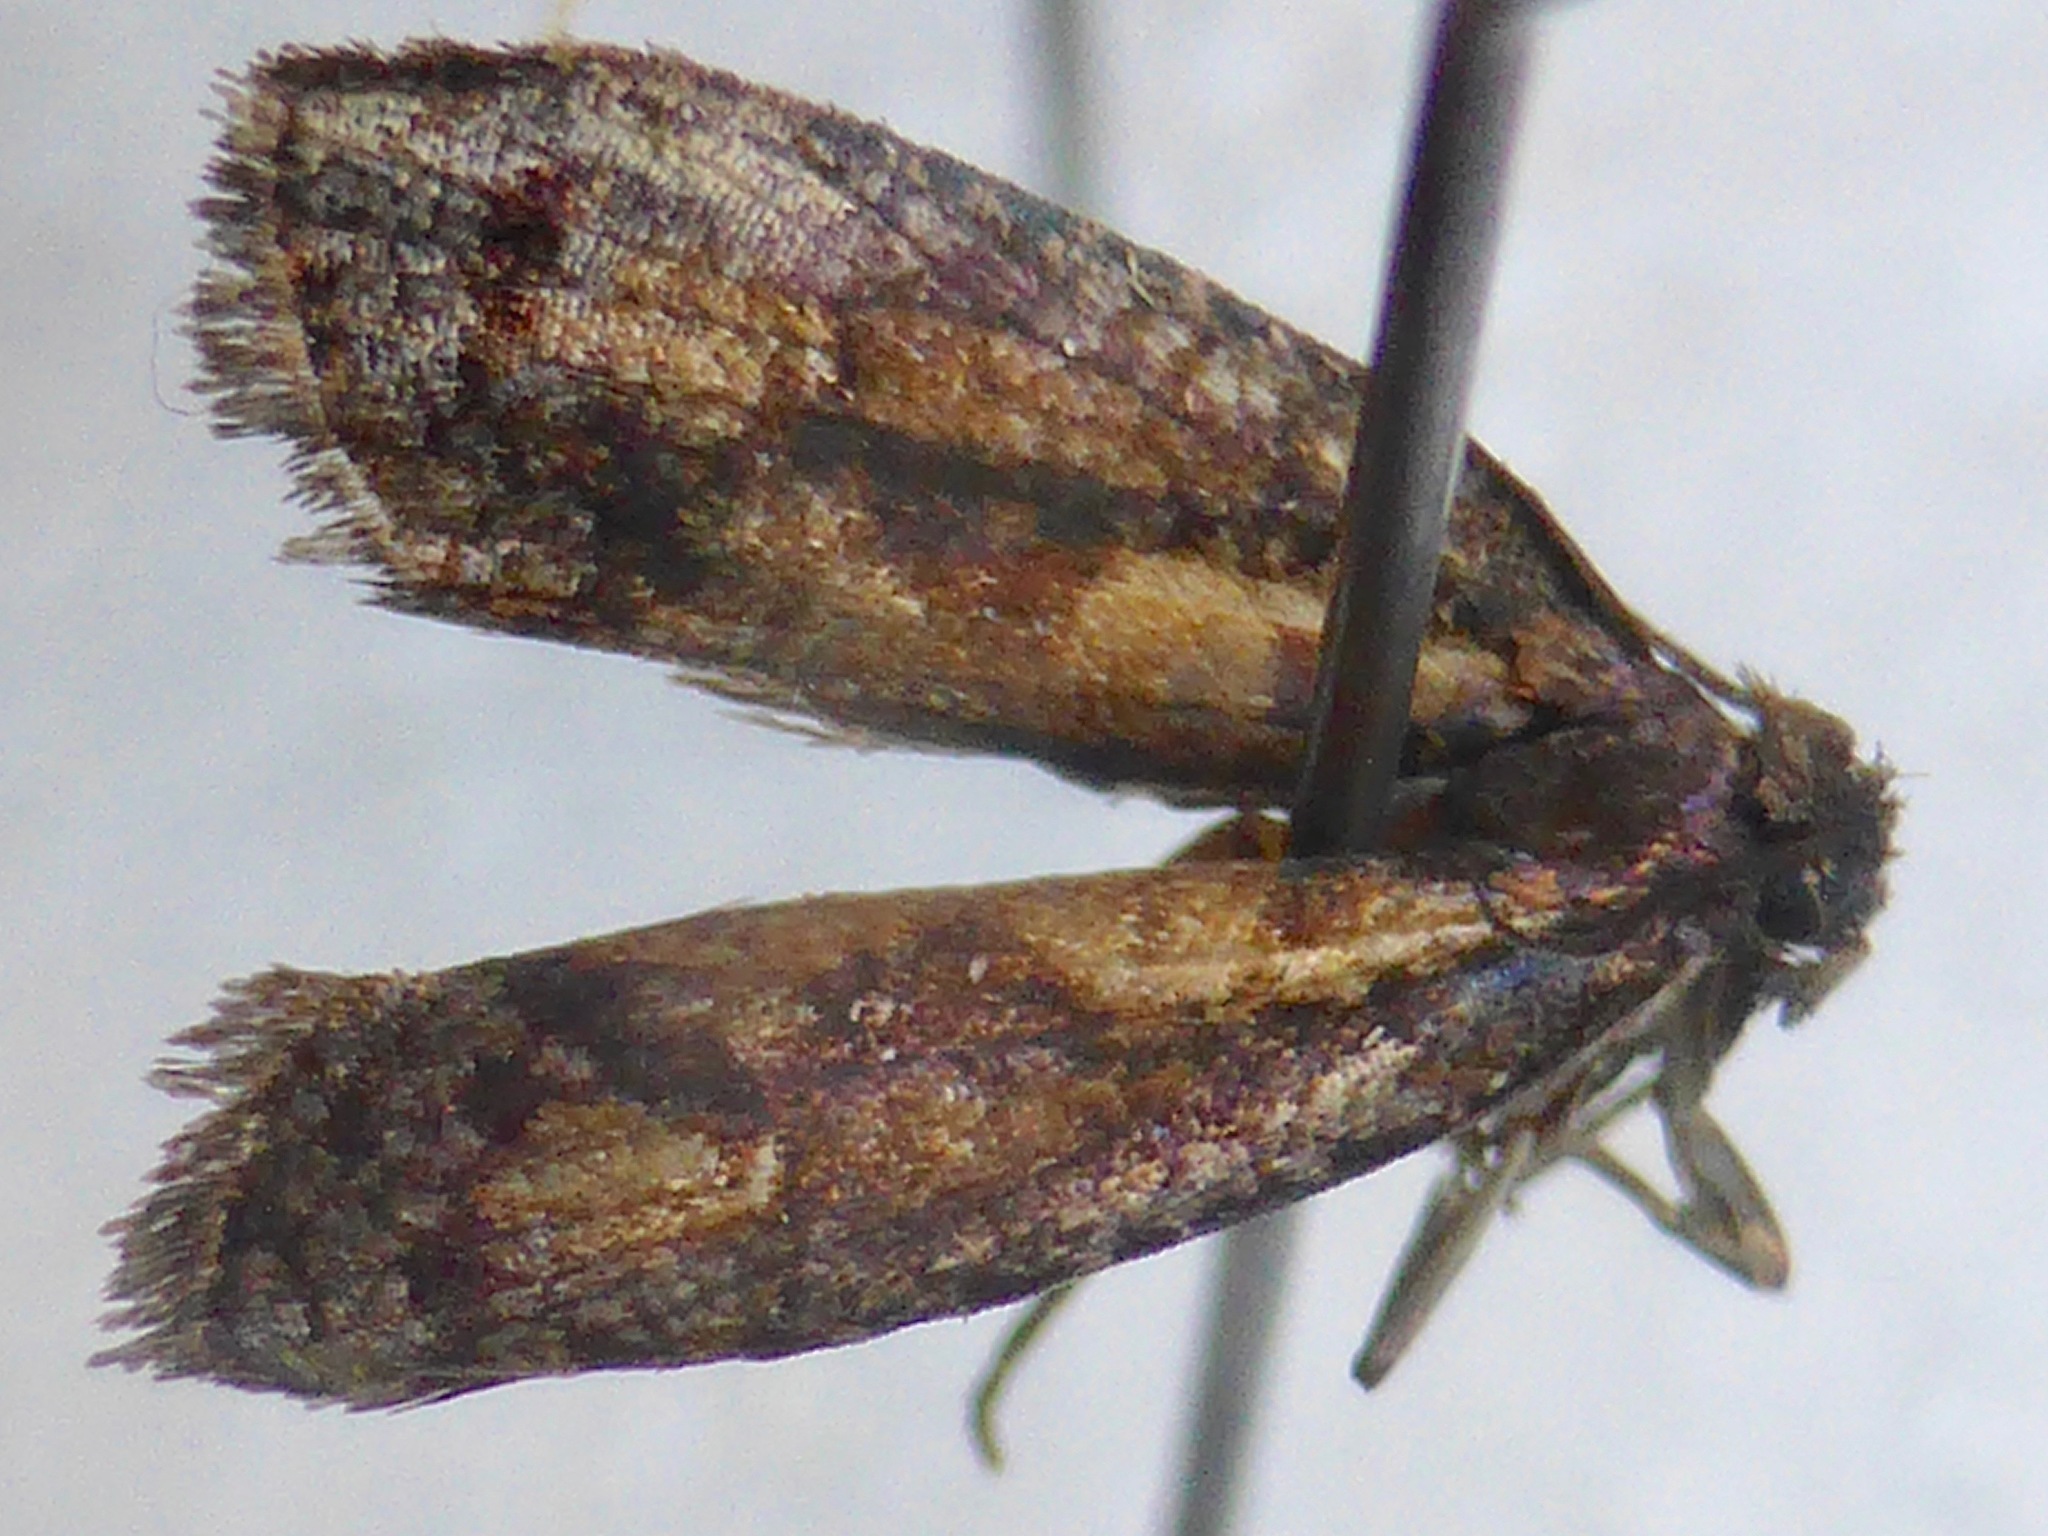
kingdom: Animalia
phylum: Arthropoda
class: Insecta
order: Lepidoptera
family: Tortricidae
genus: Cryptaspasma
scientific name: Cryptaspasma querula
